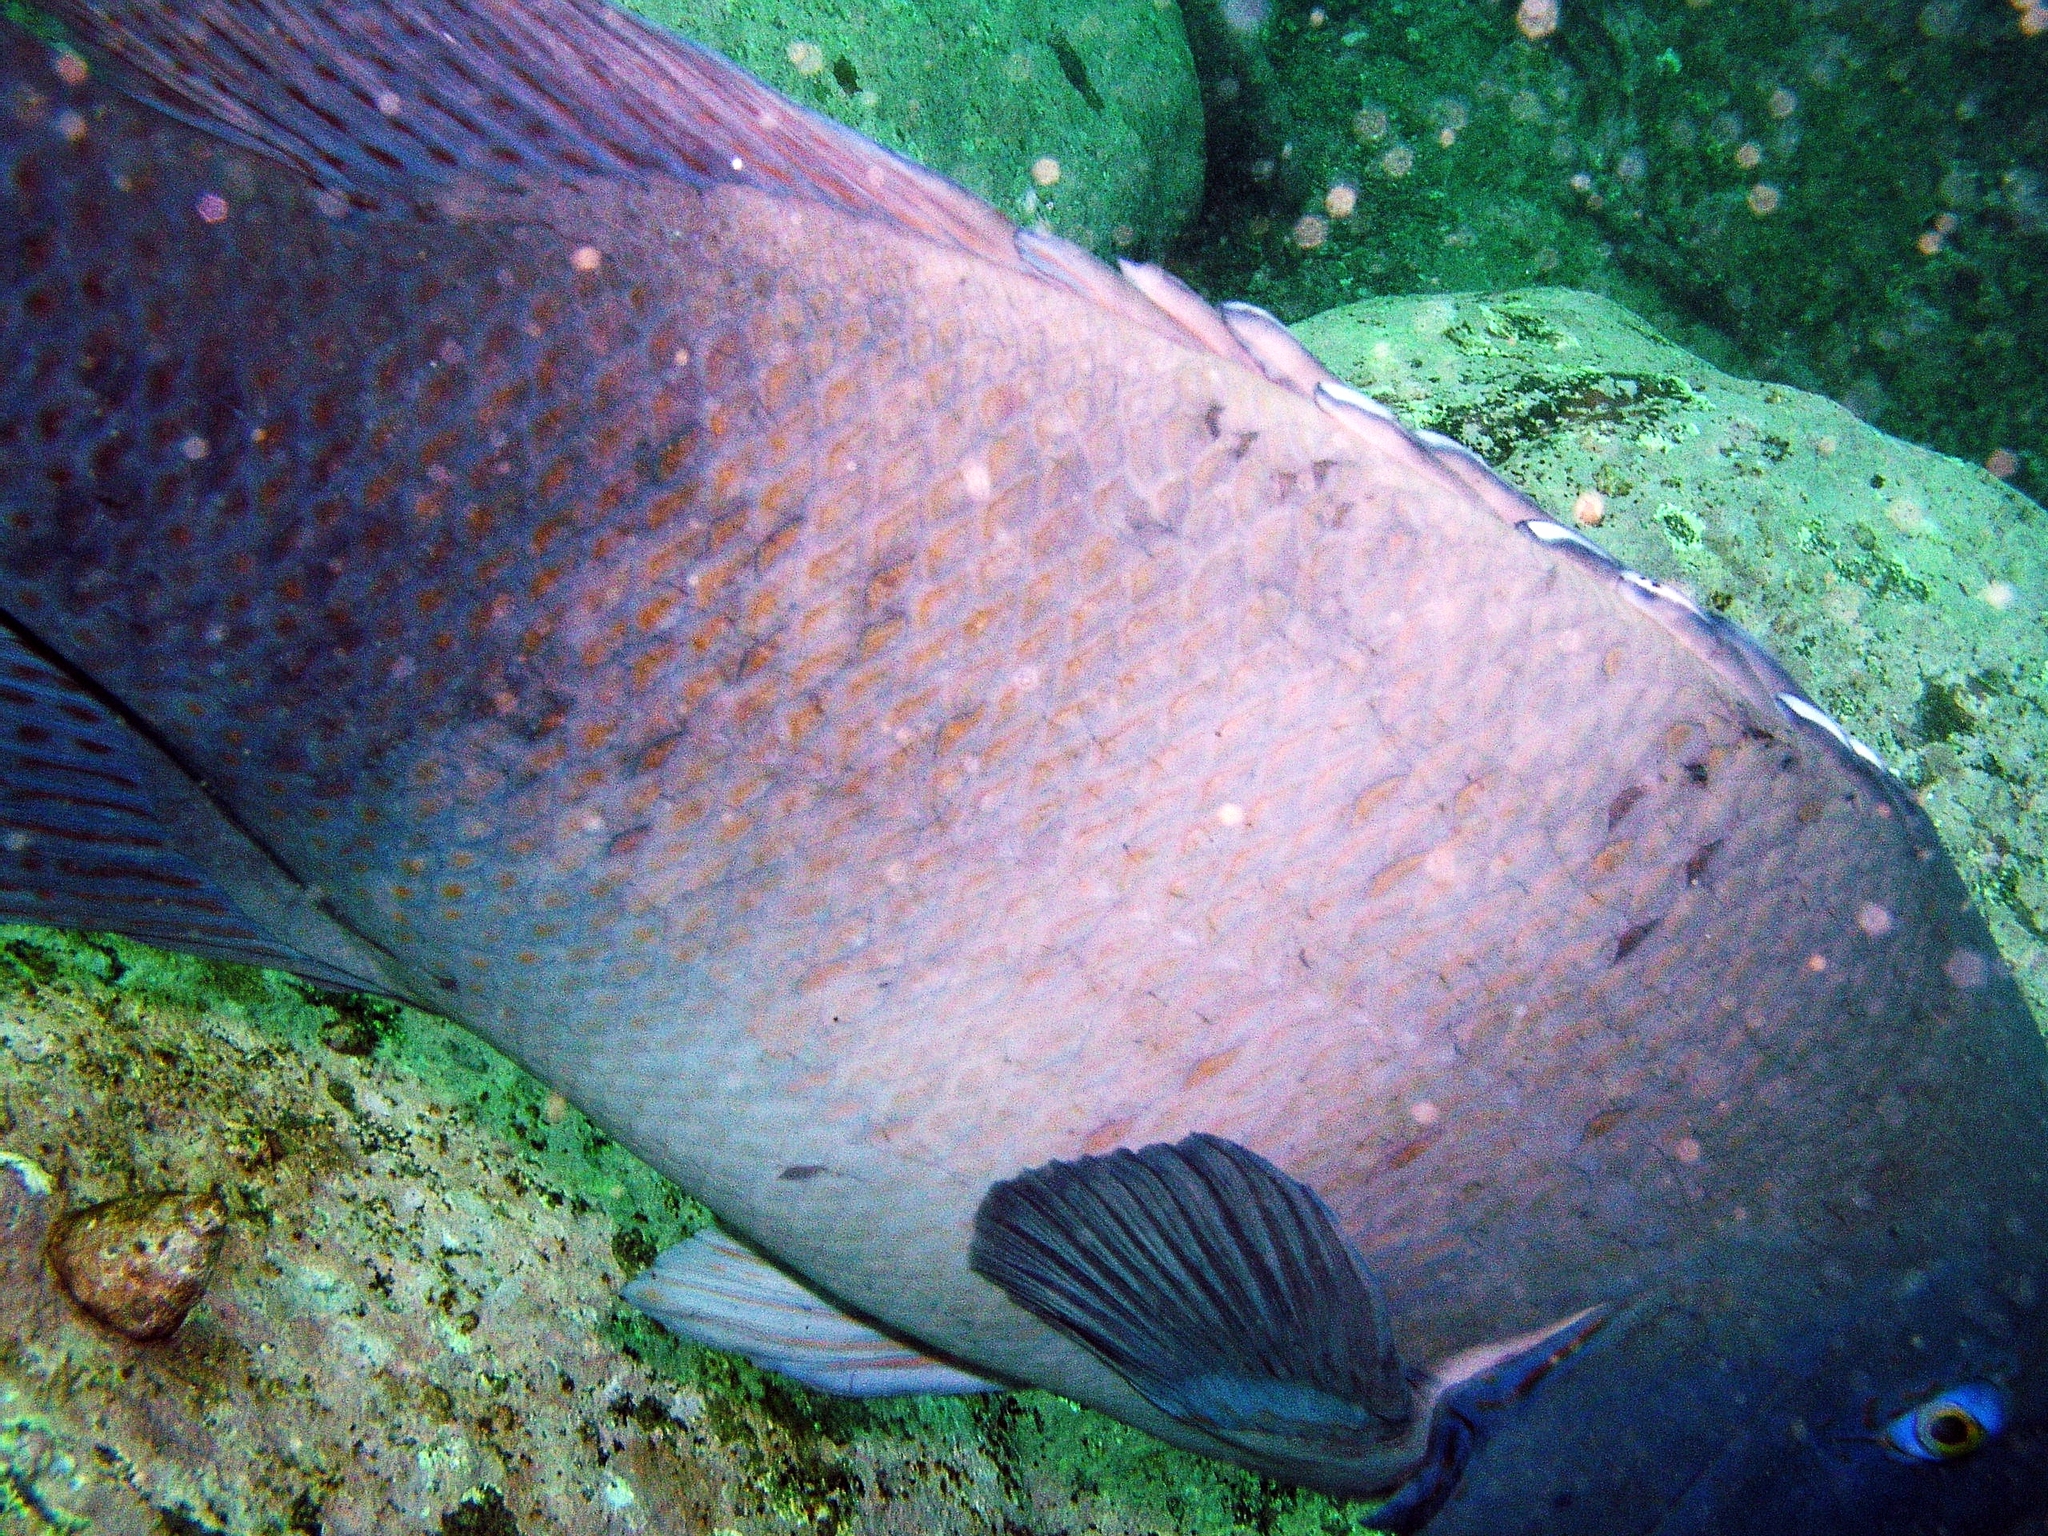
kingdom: Animalia
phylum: Chordata
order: Perciformes
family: Labridae
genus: Achoerodus
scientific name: Achoerodus viridis
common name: Brown groper
